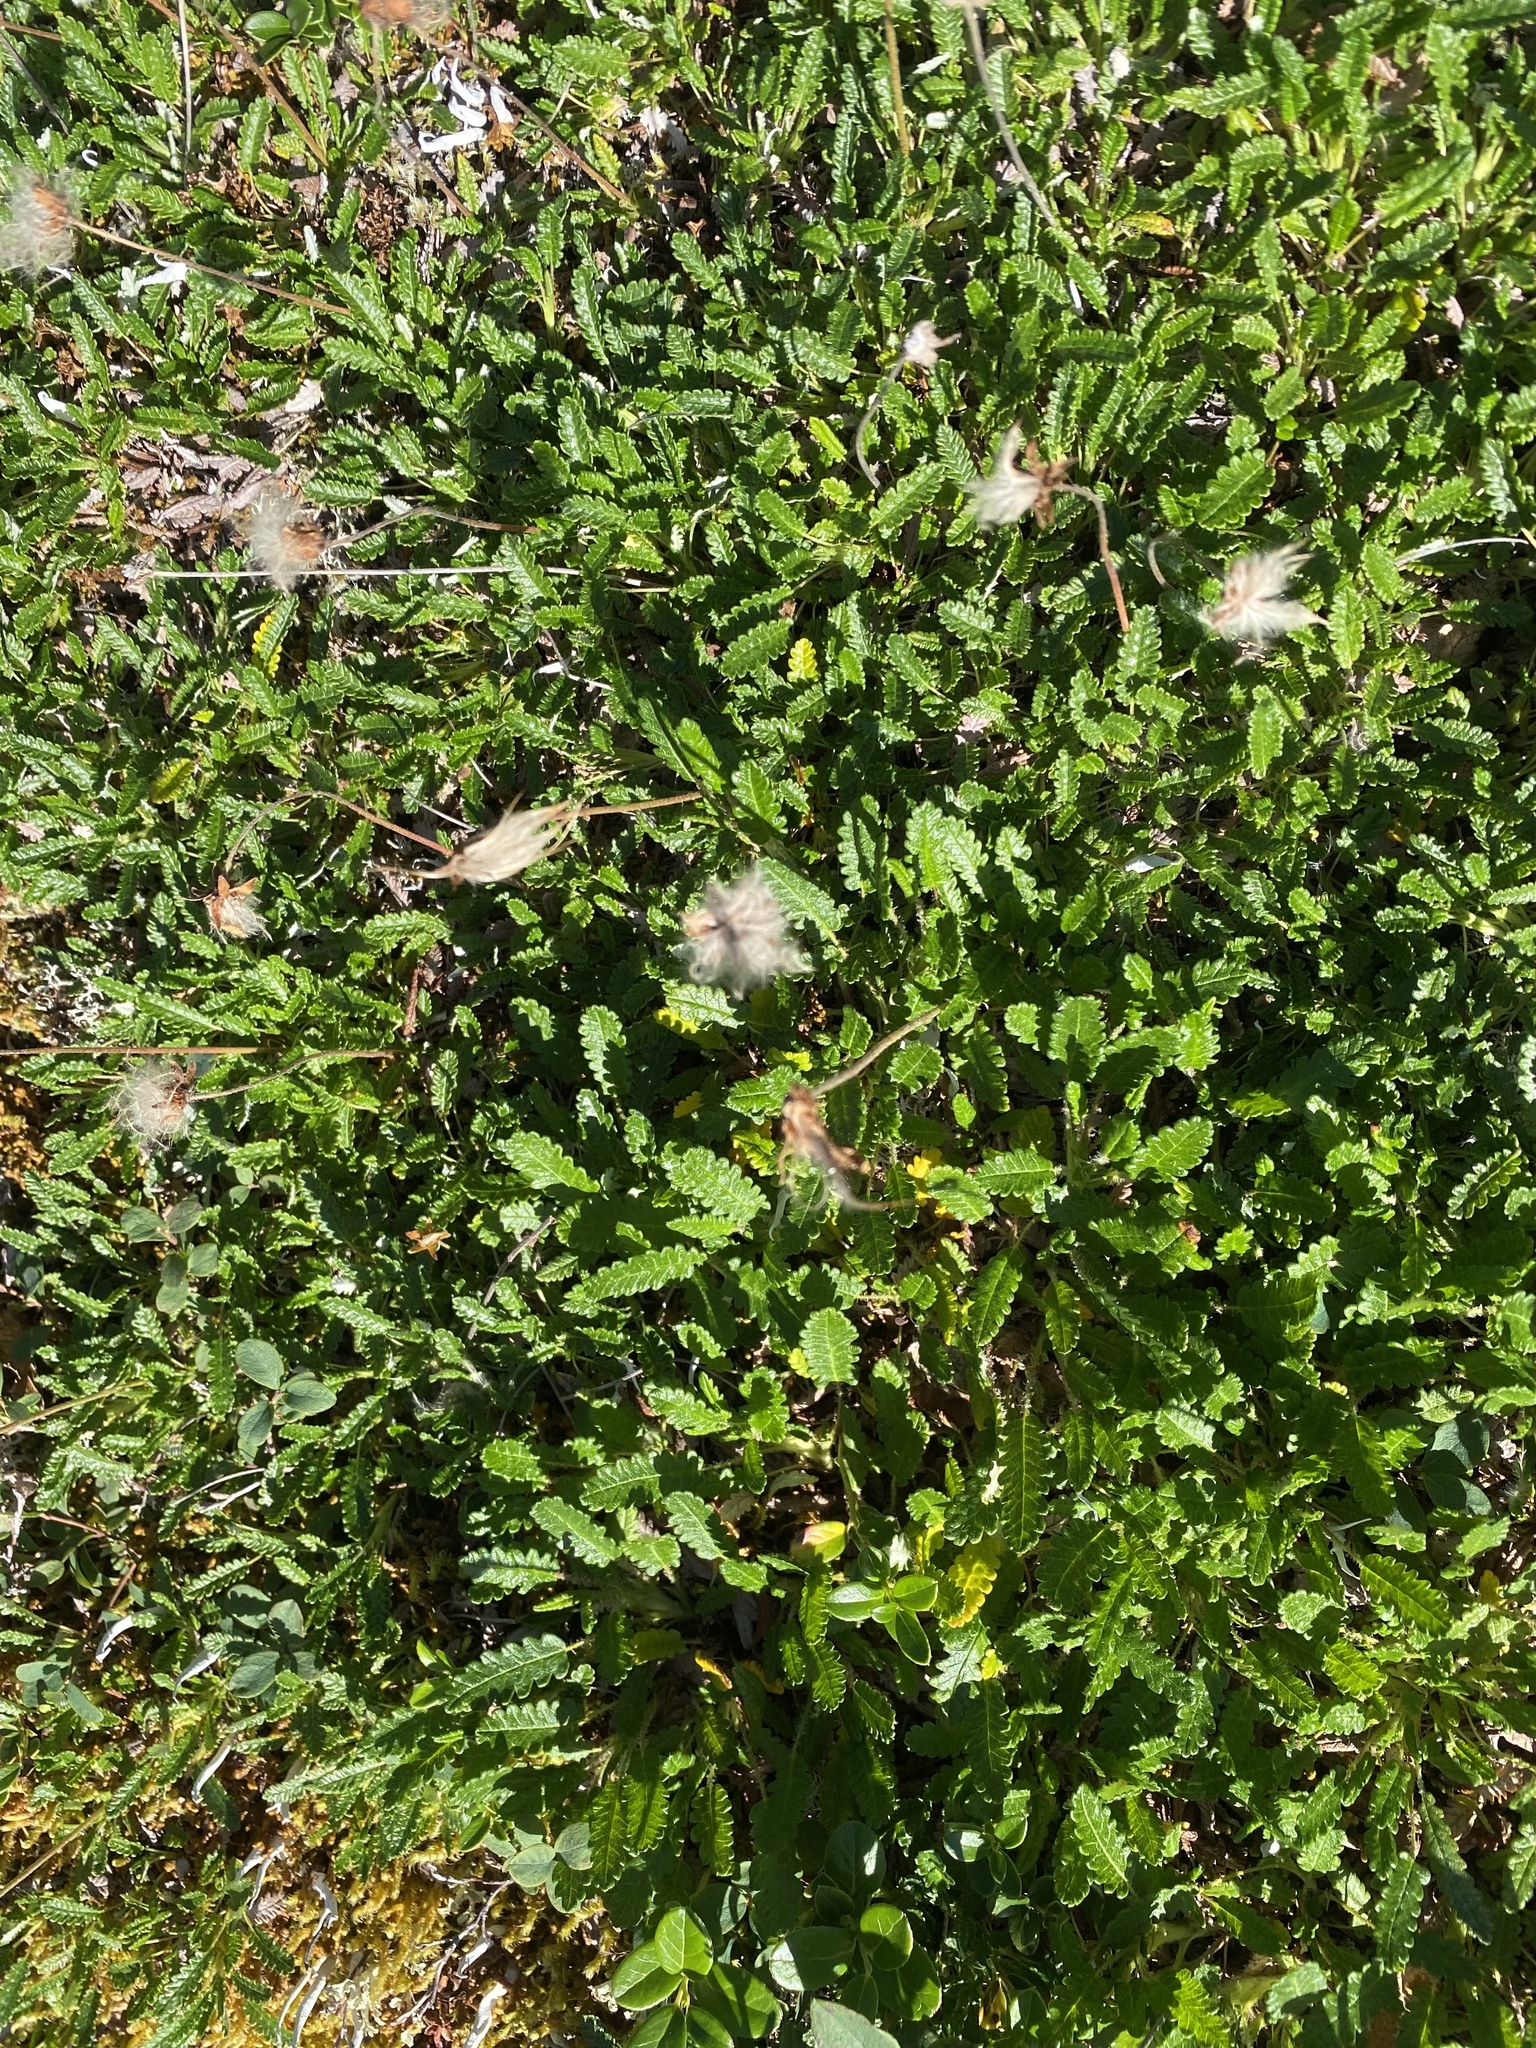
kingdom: Plantae
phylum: Tracheophyta
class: Magnoliopsida
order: Rosales
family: Rosaceae
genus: Dryas
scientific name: Dryas octopetala
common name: Eight-petal mountain-avens
